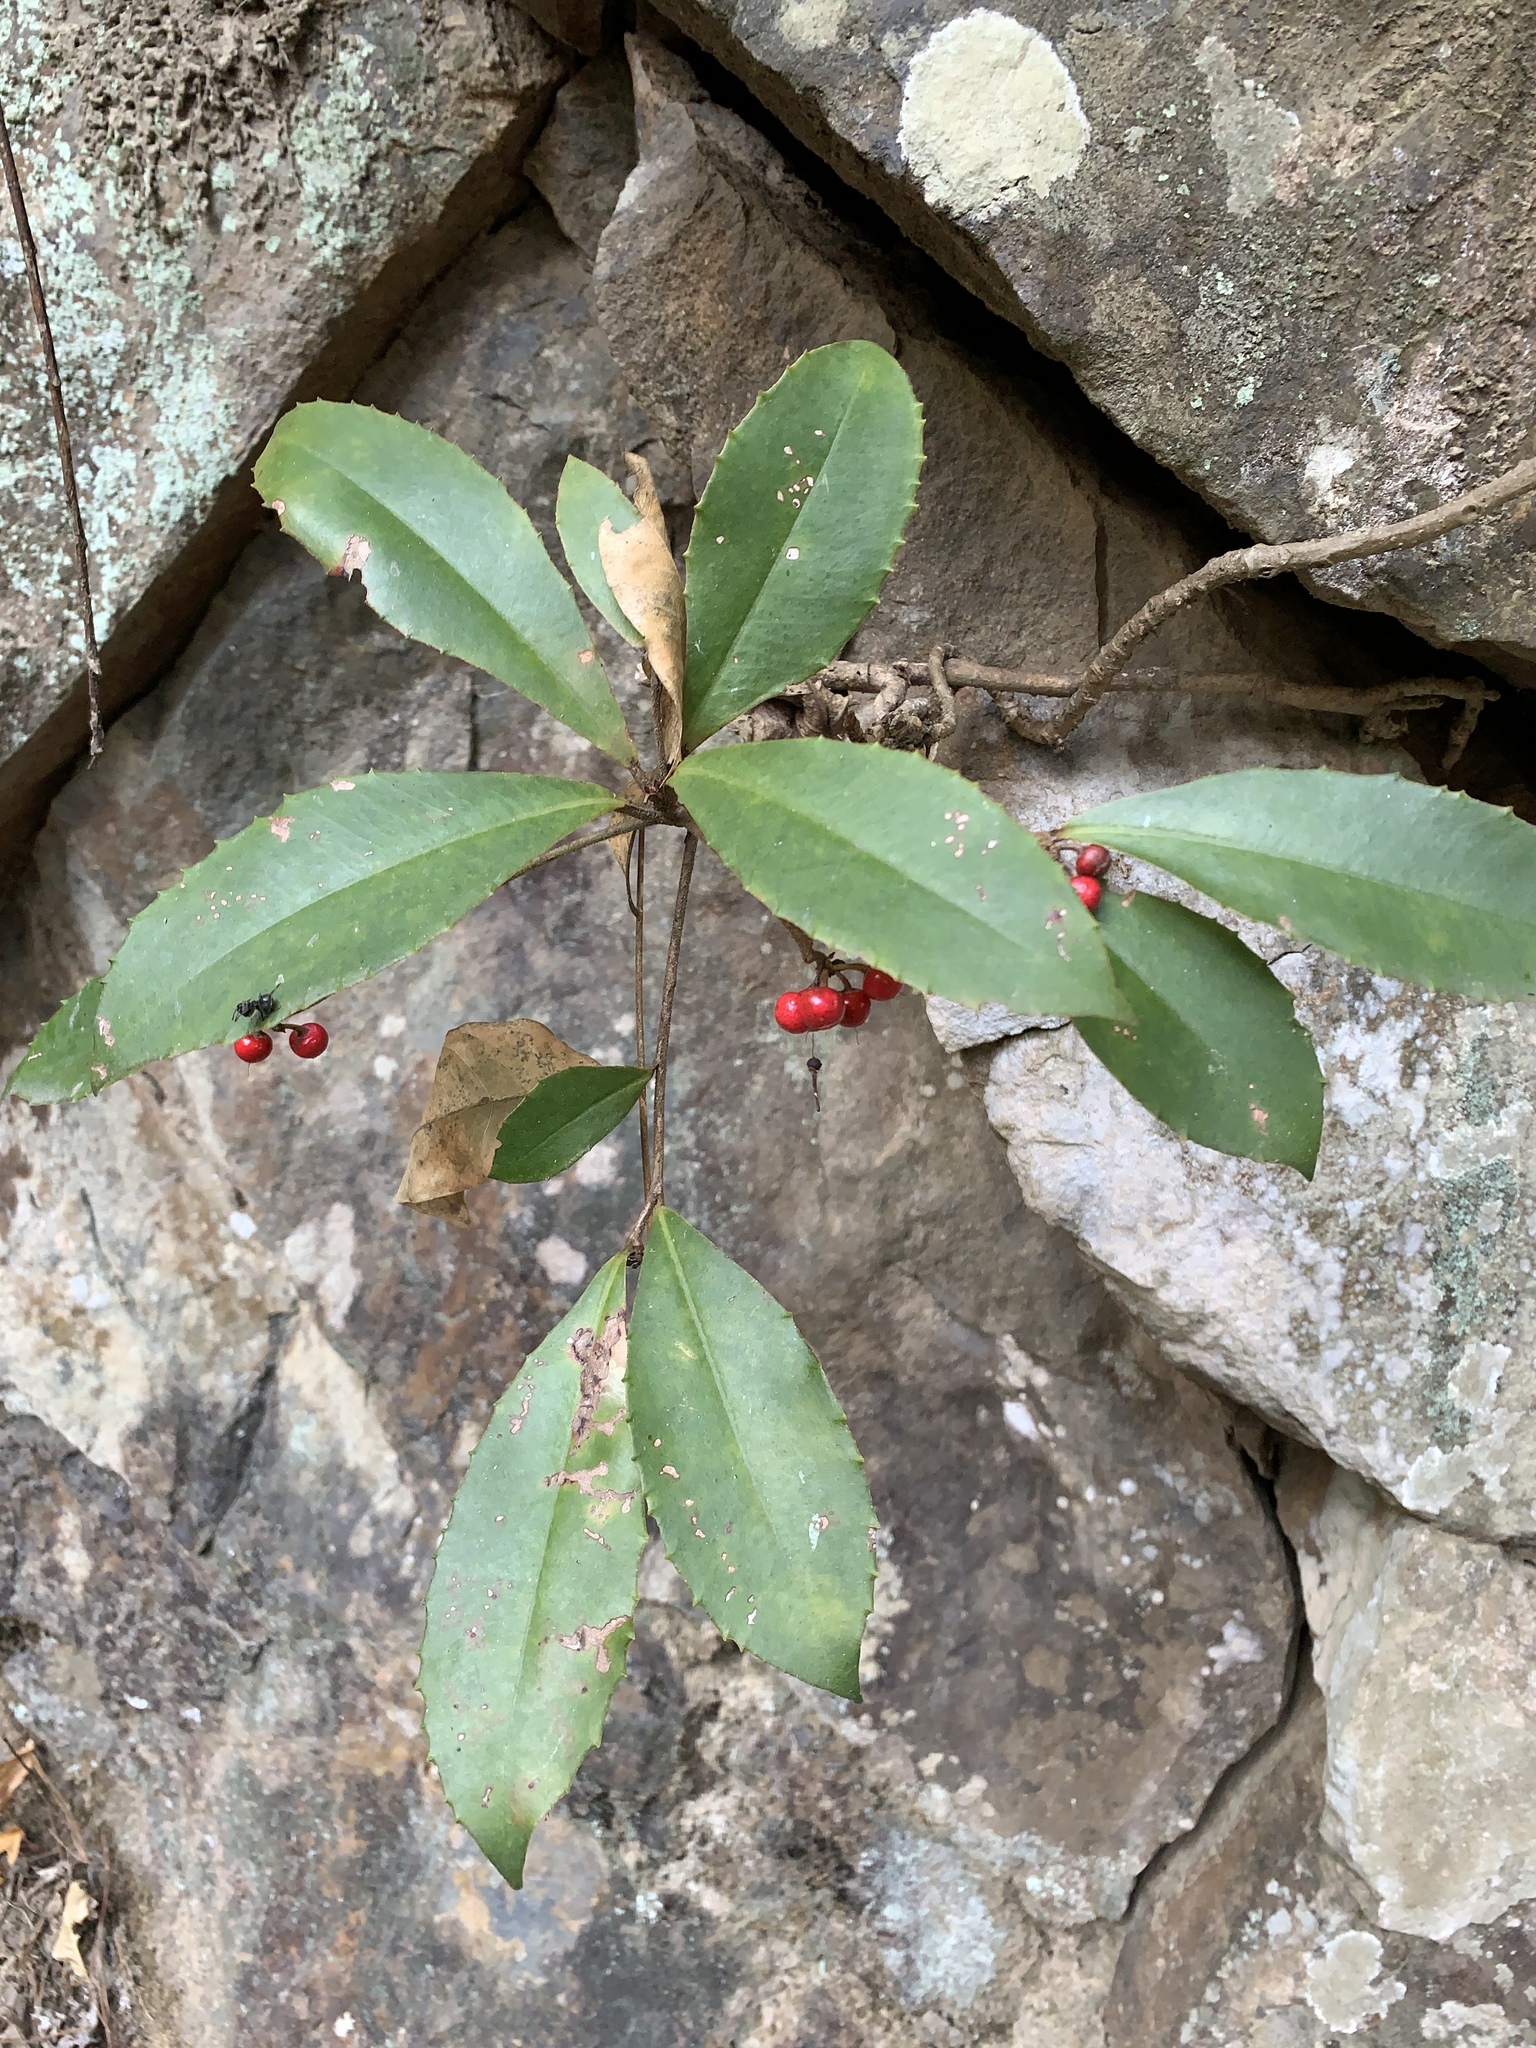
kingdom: Plantae
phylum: Tracheophyta
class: Magnoliopsida
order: Ericales
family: Primulaceae
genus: Ardisia
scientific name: Ardisia cornudentata
